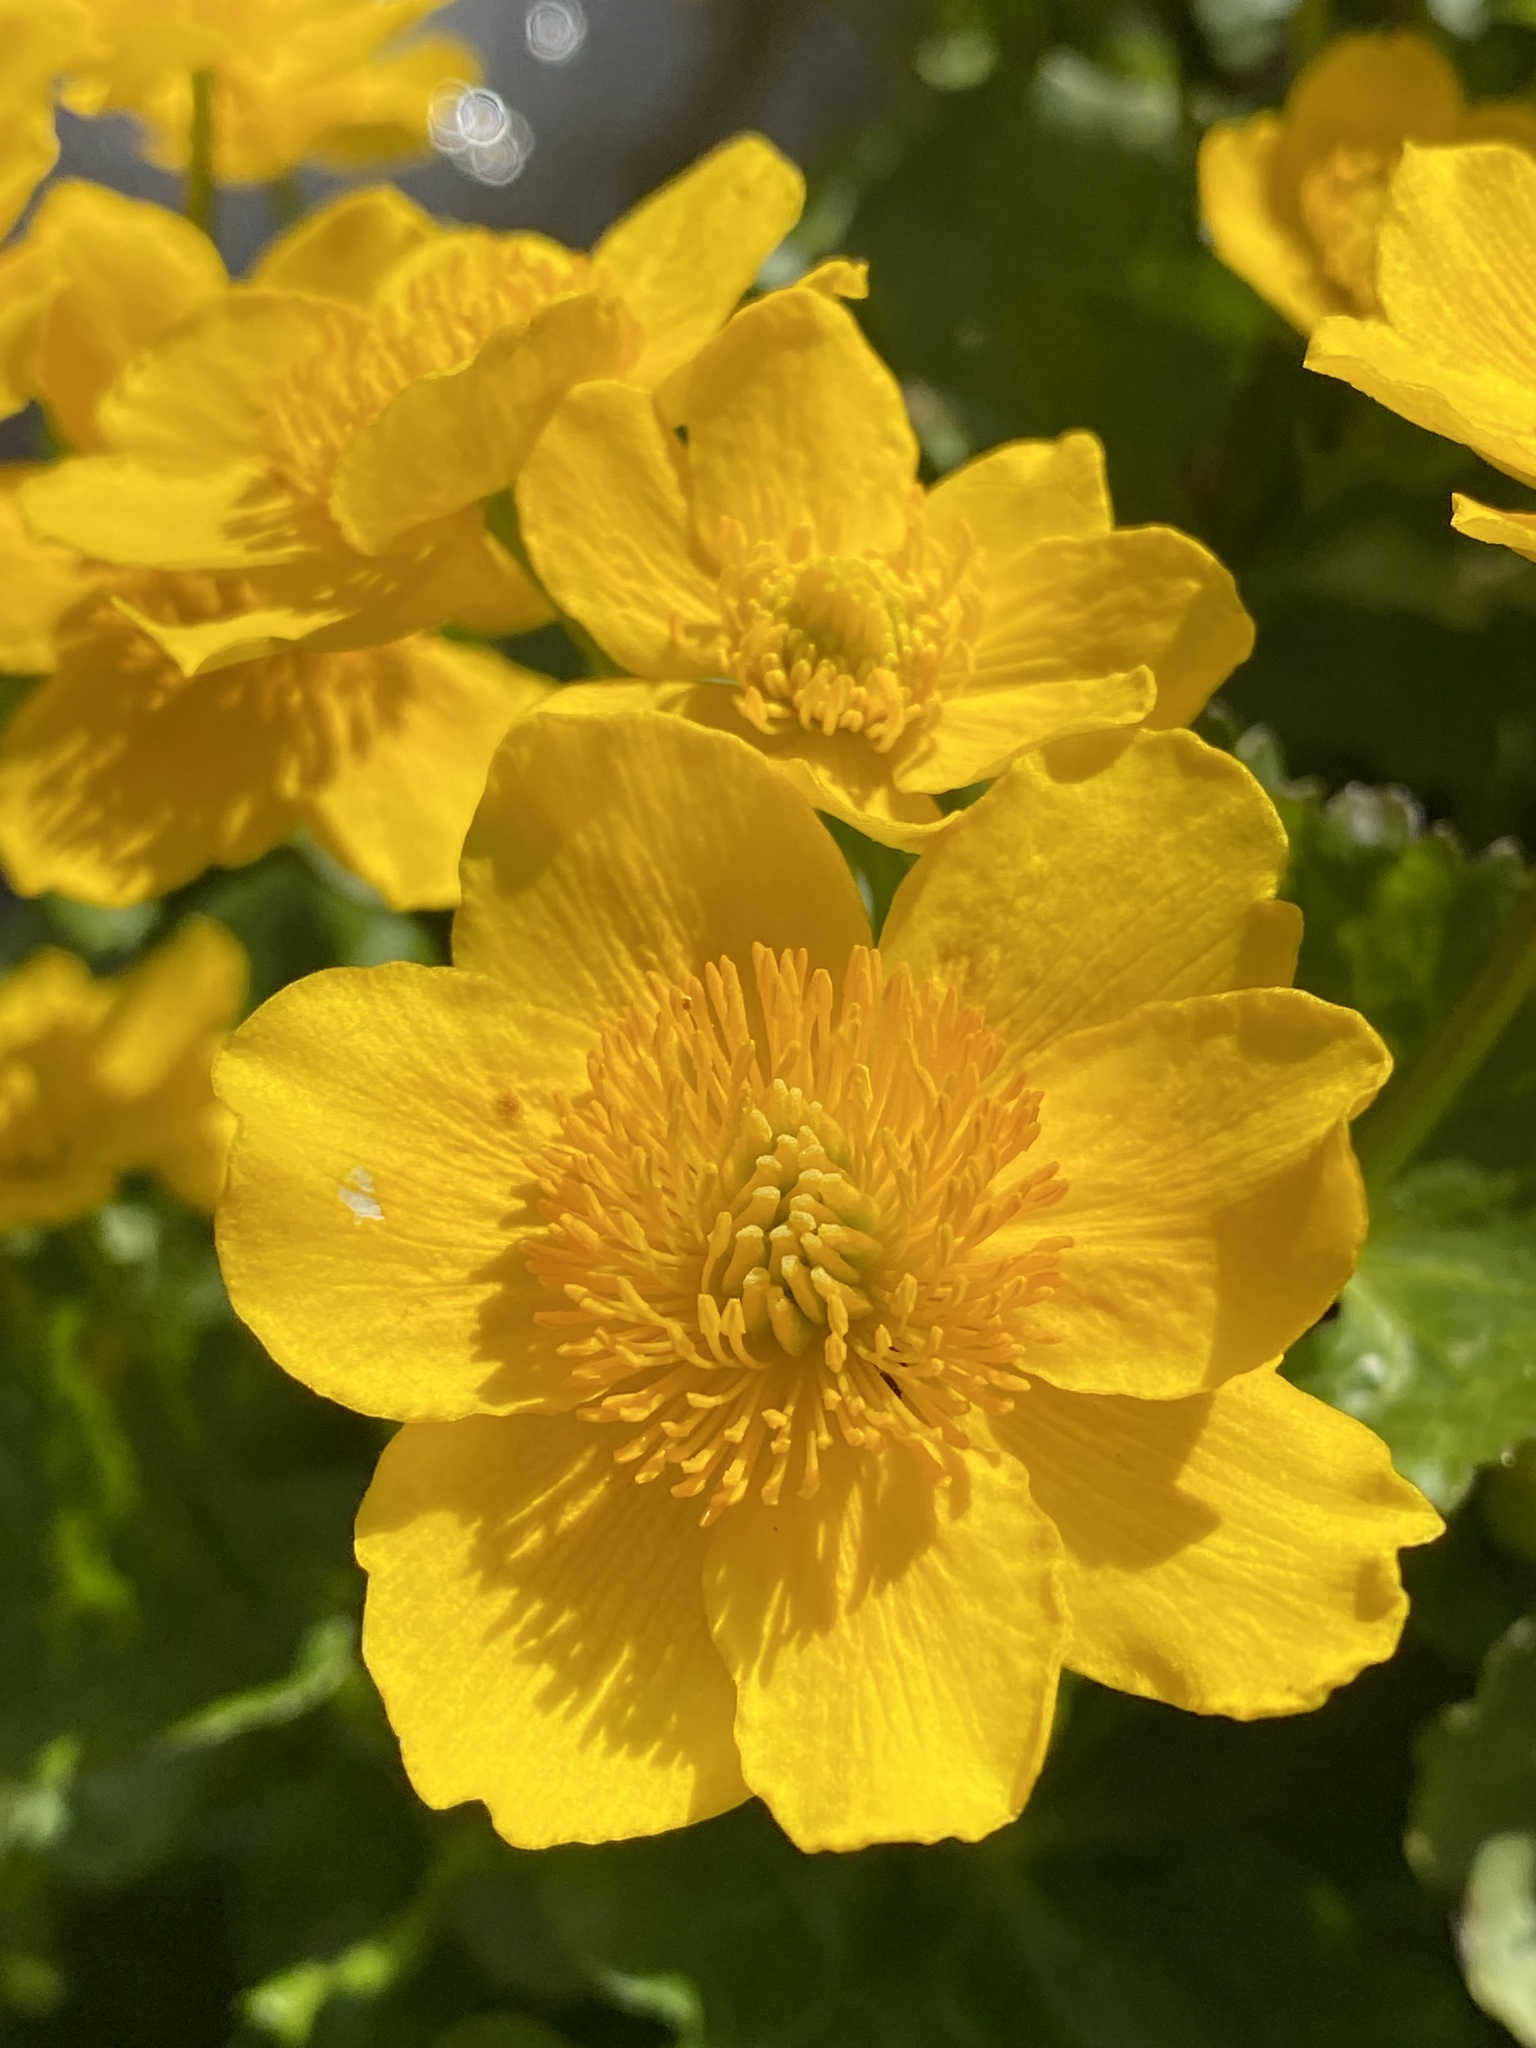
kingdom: Plantae
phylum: Tracheophyta
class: Magnoliopsida
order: Ranunculales
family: Ranunculaceae
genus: Caltha
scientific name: Caltha palustris
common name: Marsh marigold
